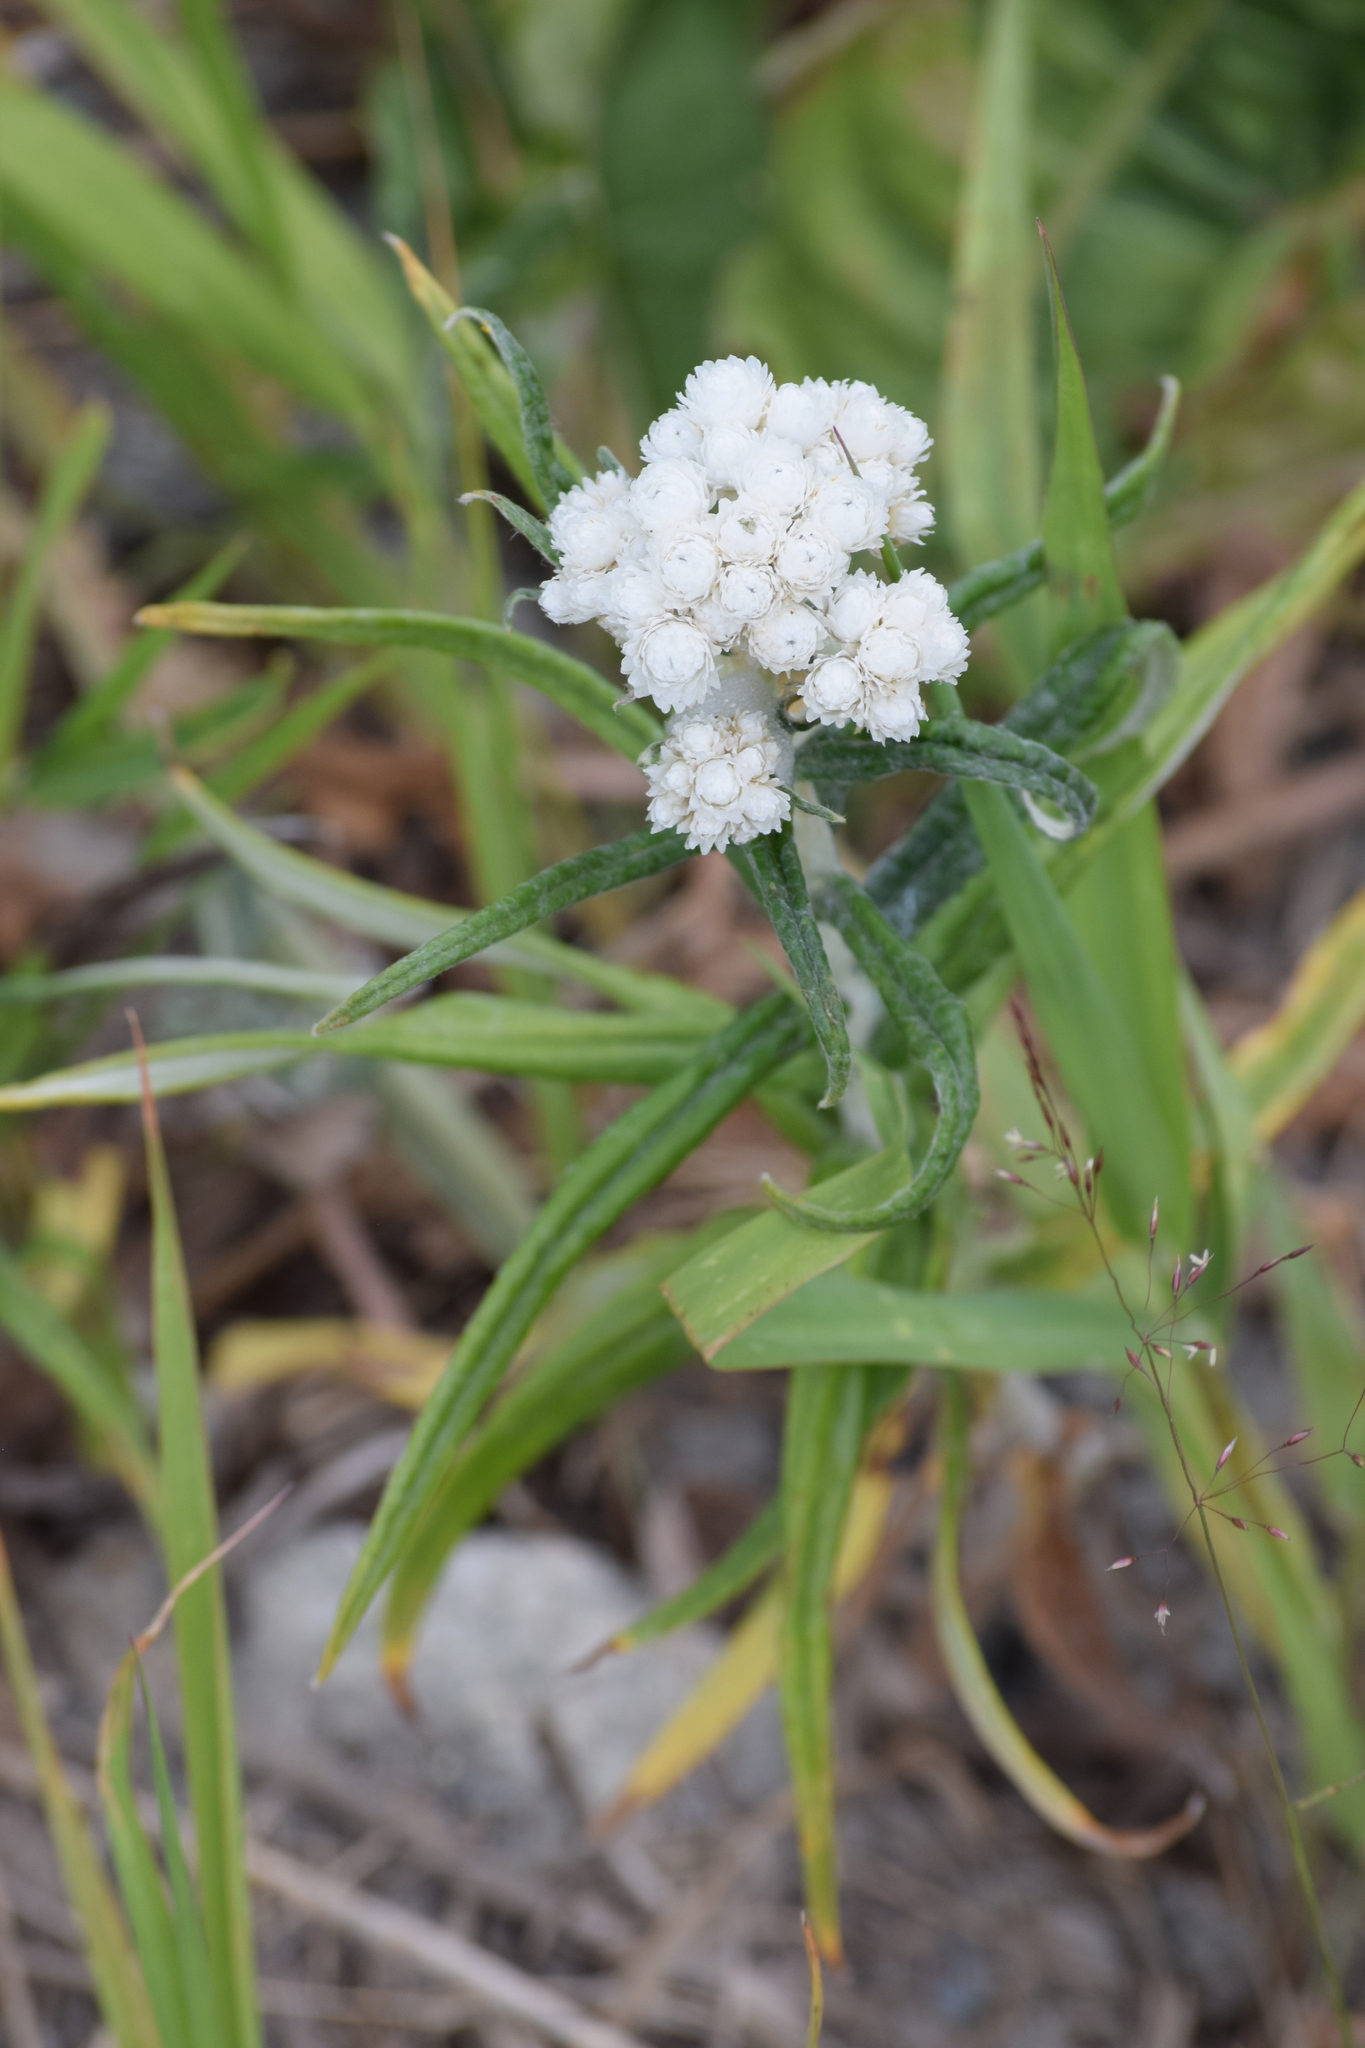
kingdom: Plantae
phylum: Tracheophyta
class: Magnoliopsida
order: Asterales
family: Asteraceae
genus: Anaphalis
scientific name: Anaphalis margaritacea
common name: Pearly everlasting
